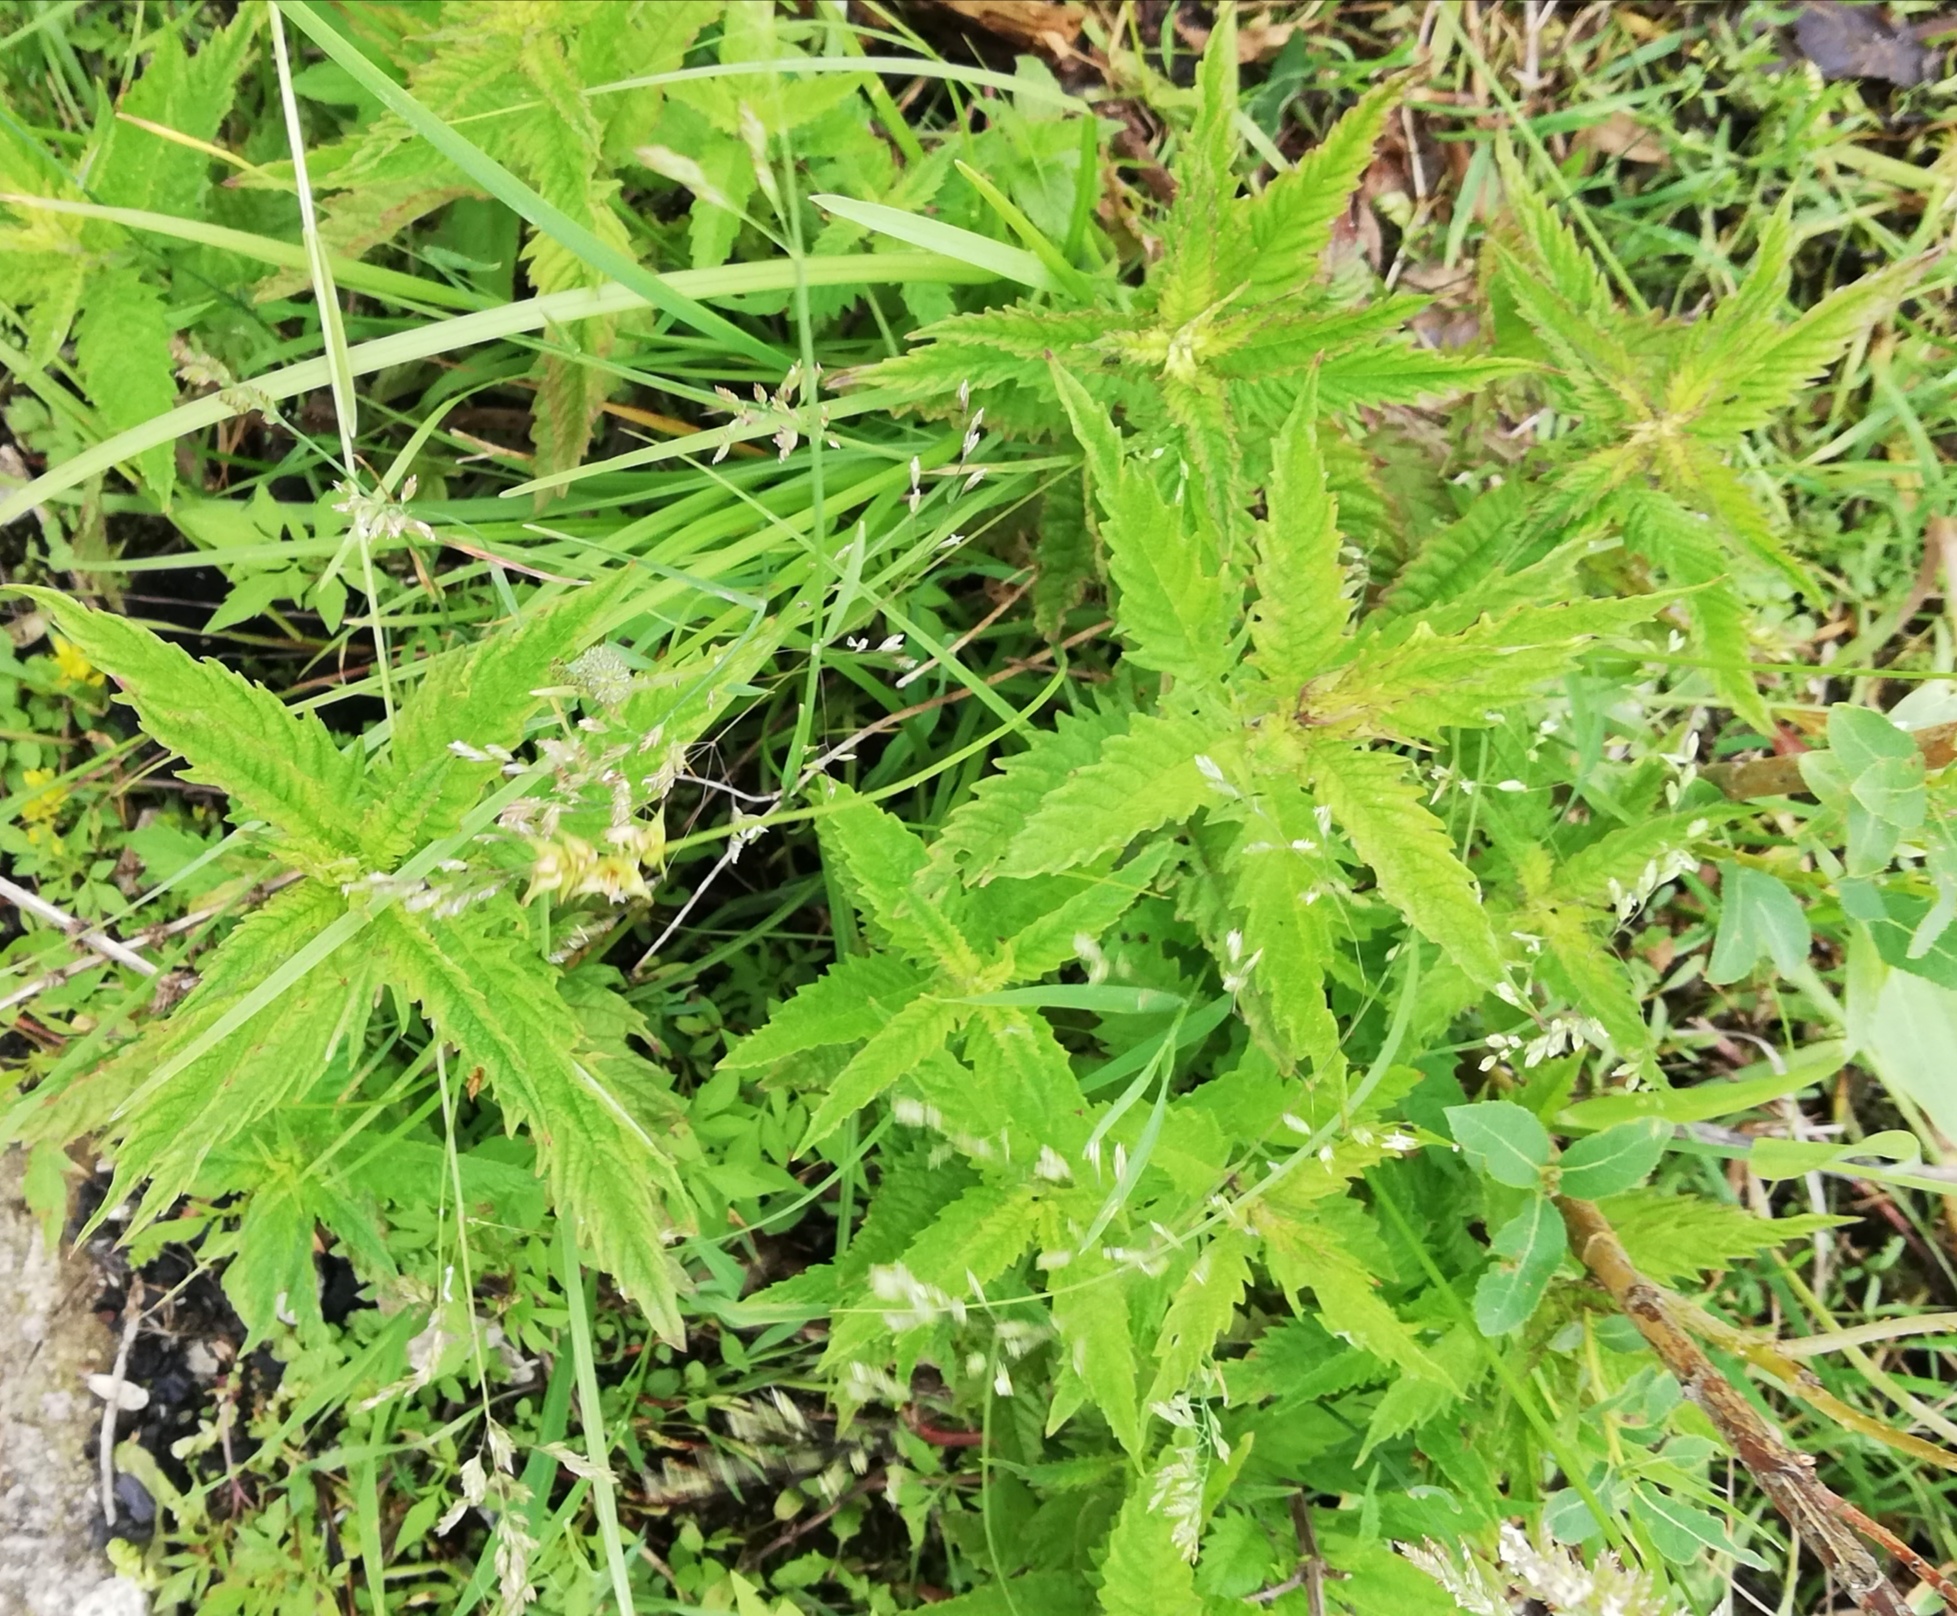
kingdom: Plantae
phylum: Tracheophyta
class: Magnoliopsida
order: Lamiales
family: Lamiaceae
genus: Lycopus
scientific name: Lycopus europaeus
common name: European bugleweed
